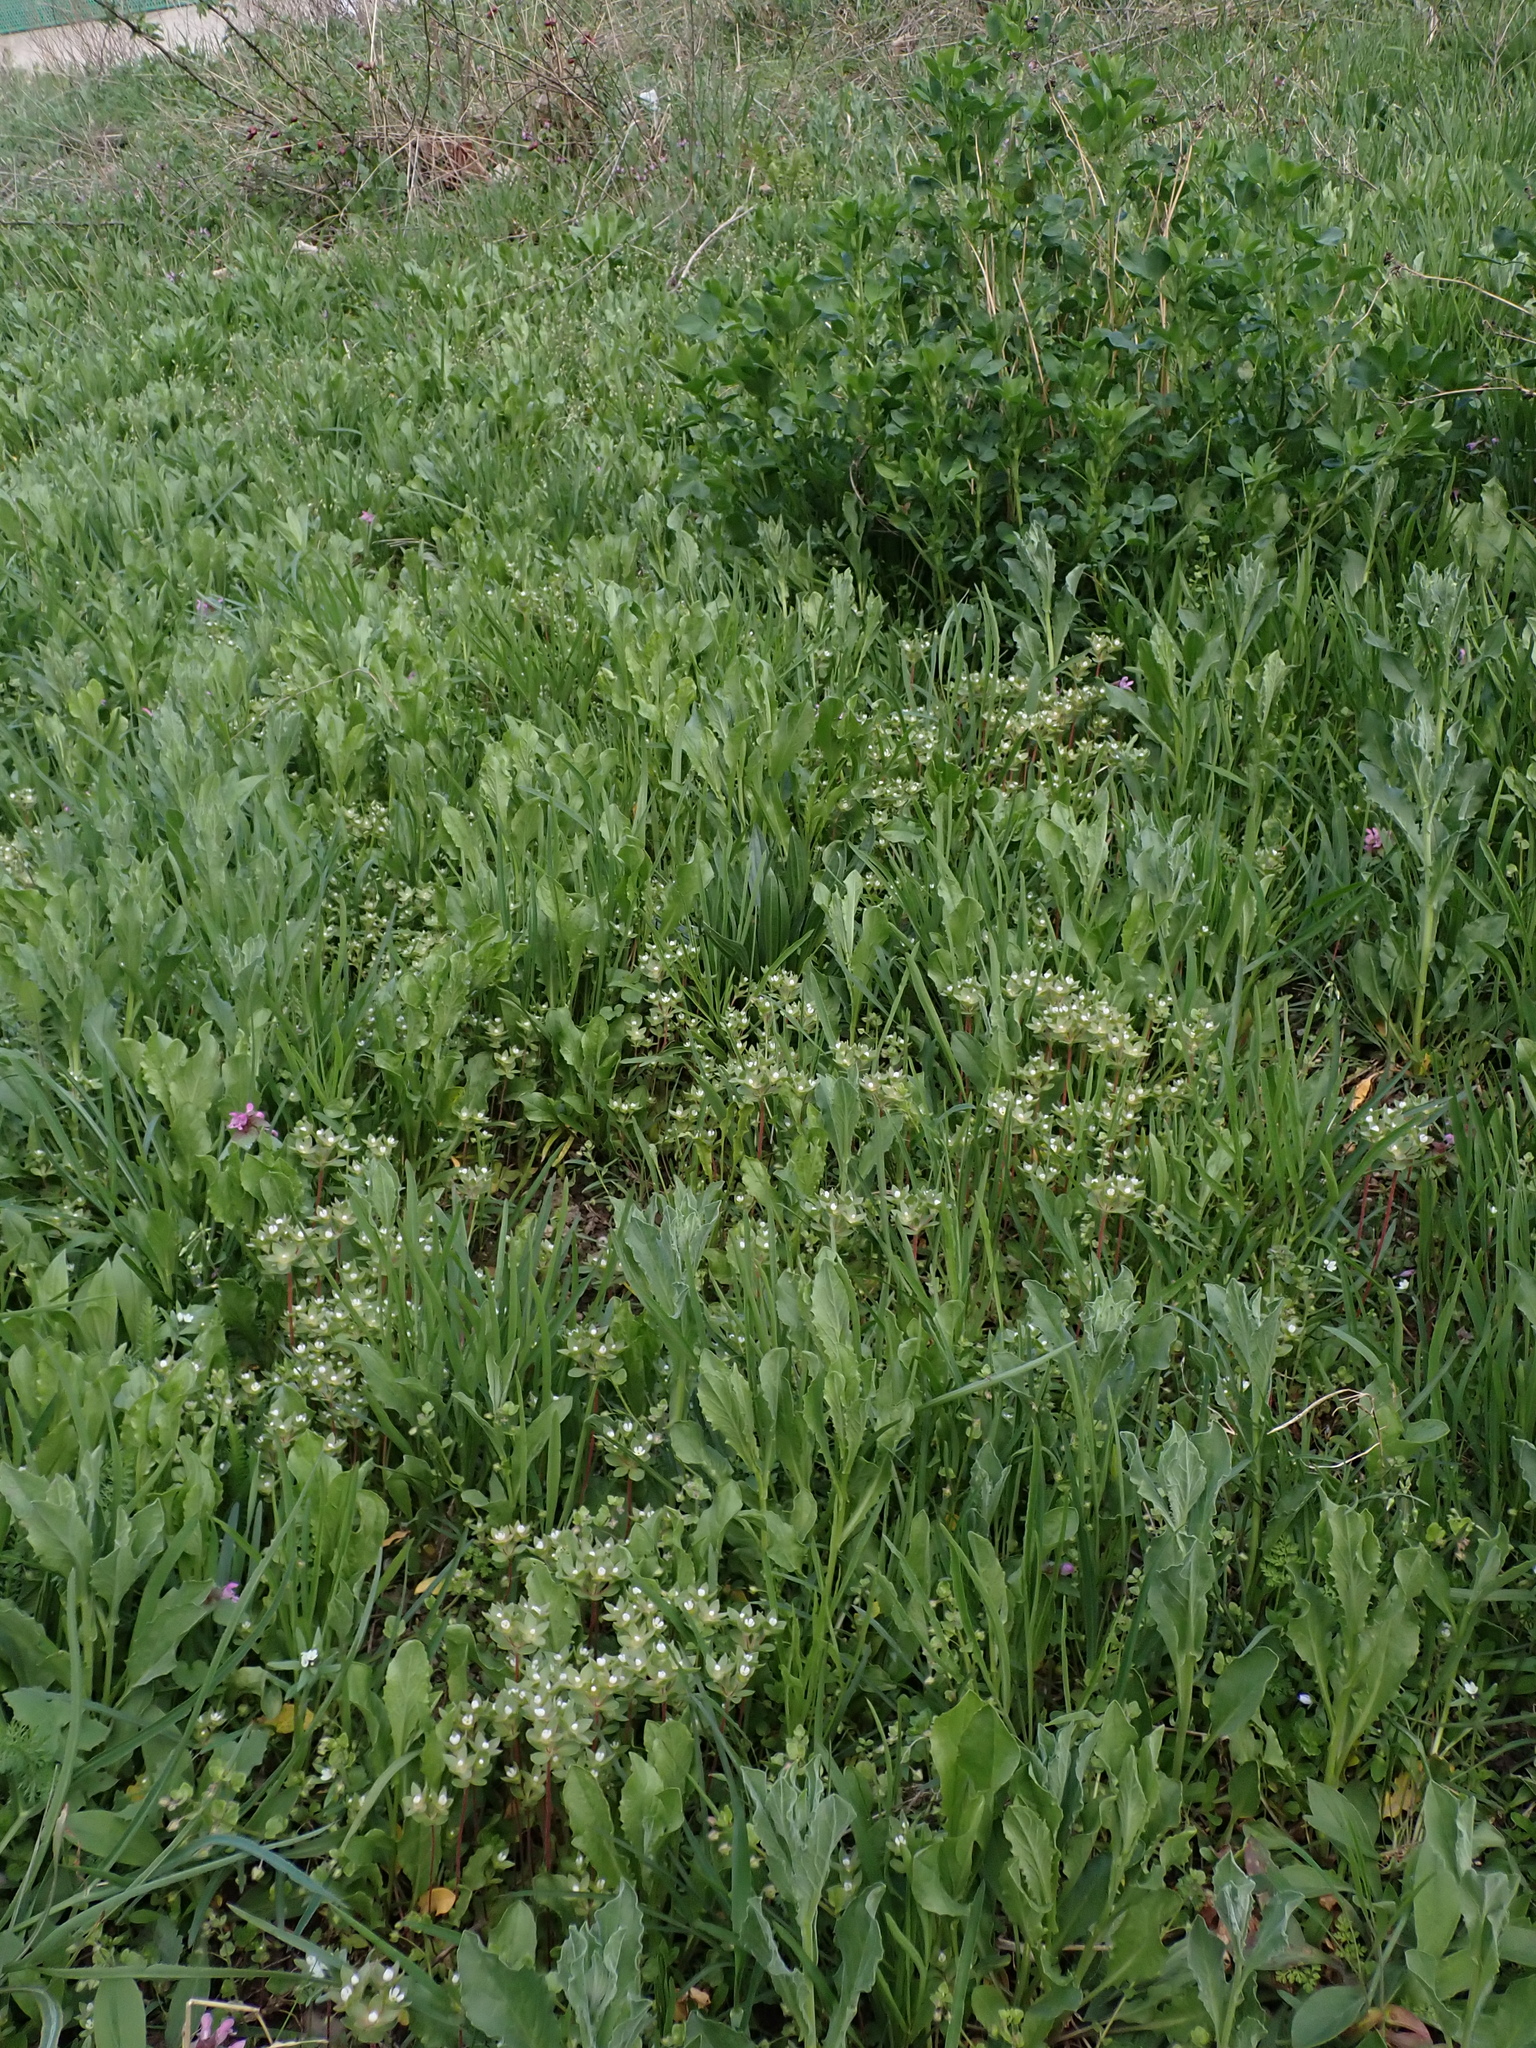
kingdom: Plantae
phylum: Tracheophyta
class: Magnoliopsida
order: Ericales
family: Primulaceae
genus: Androsace
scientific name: Androsace maxima
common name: Annual androsace
